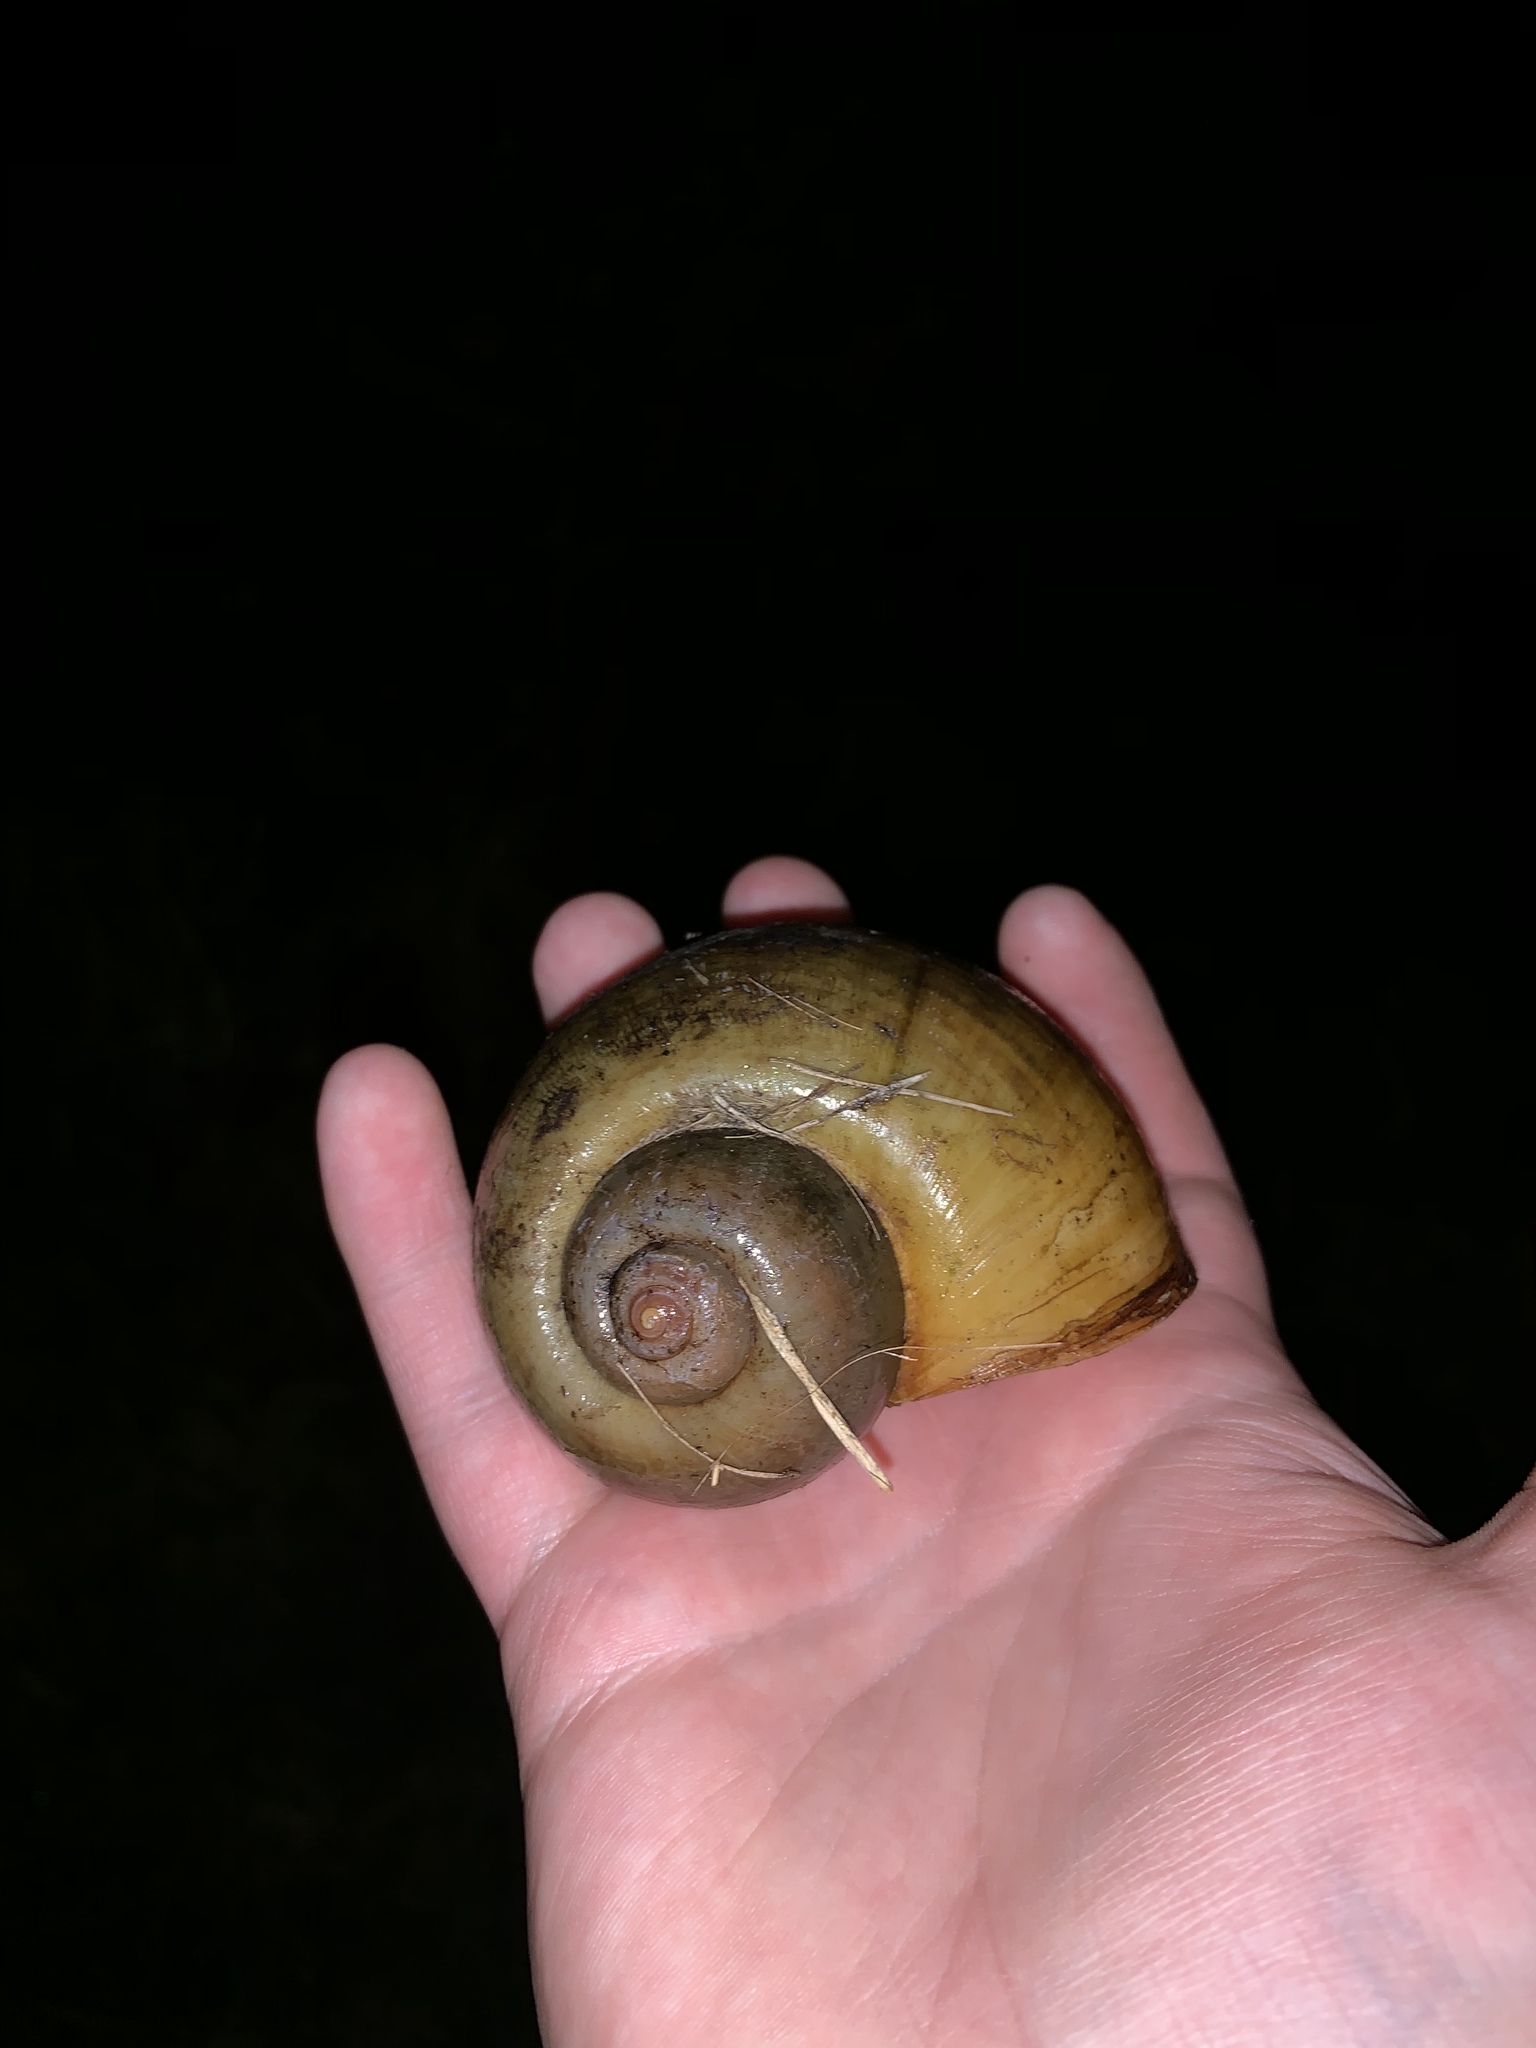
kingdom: Animalia
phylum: Mollusca
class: Gastropoda
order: Architaenioglossa
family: Ampullariidae
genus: Pomacea
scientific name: Pomacea maculata
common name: Giant applesnail
